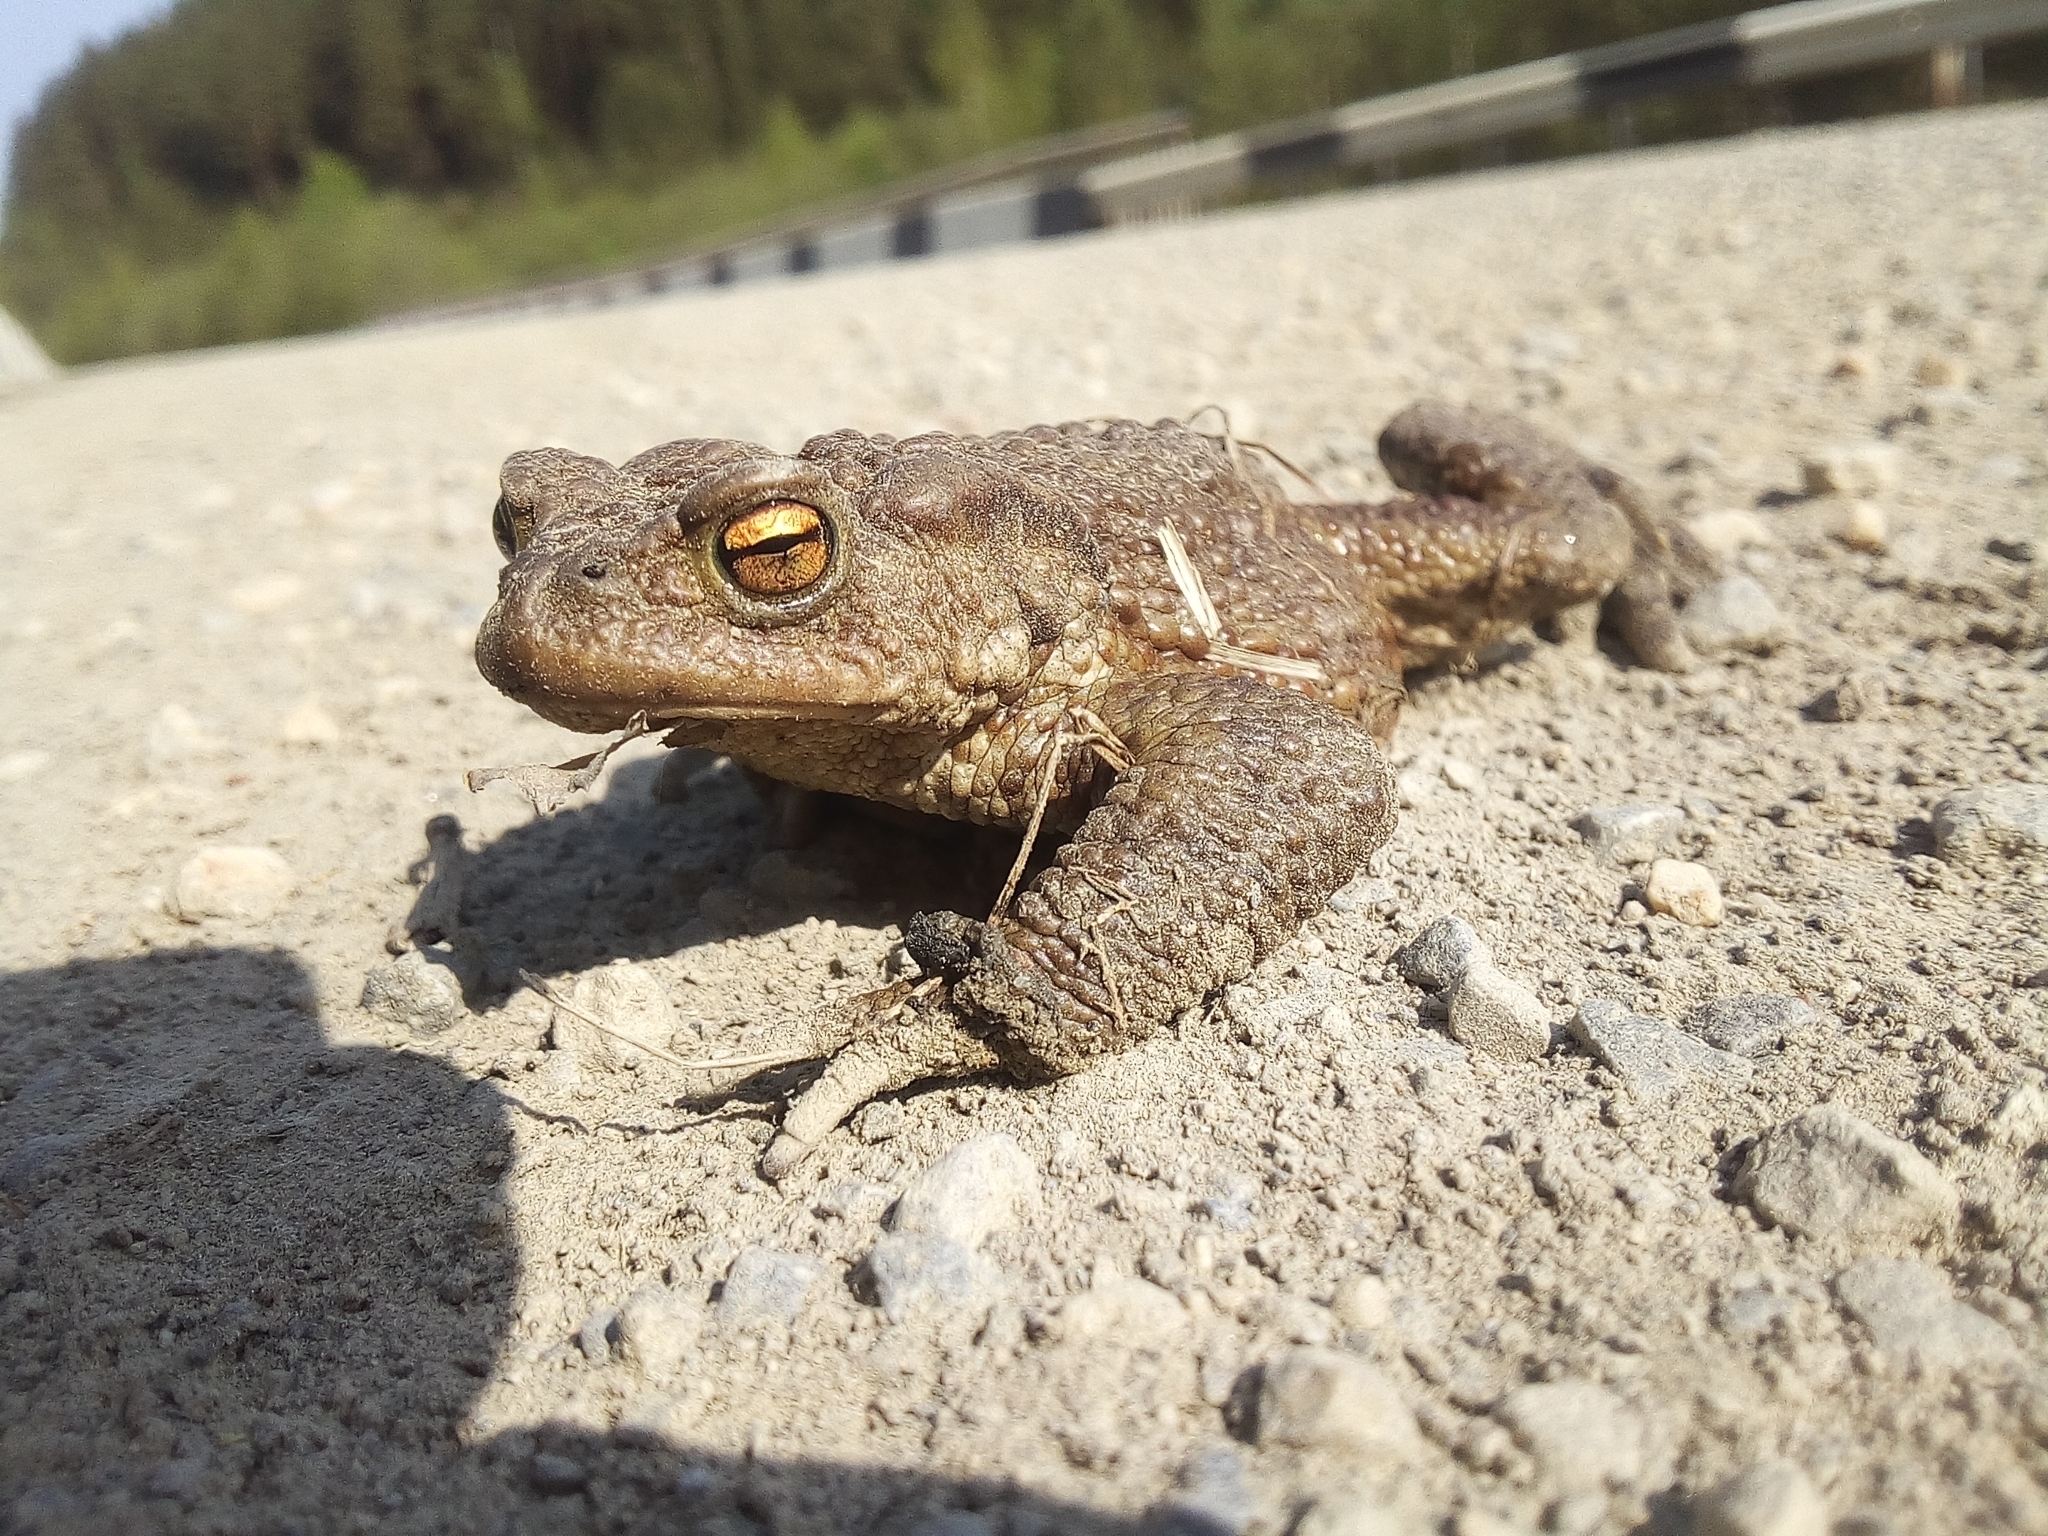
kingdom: Animalia
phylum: Chordata
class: Amphibia
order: Anura
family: Bufonidae
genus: Bufo
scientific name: Bufo bufo
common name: Common toad
